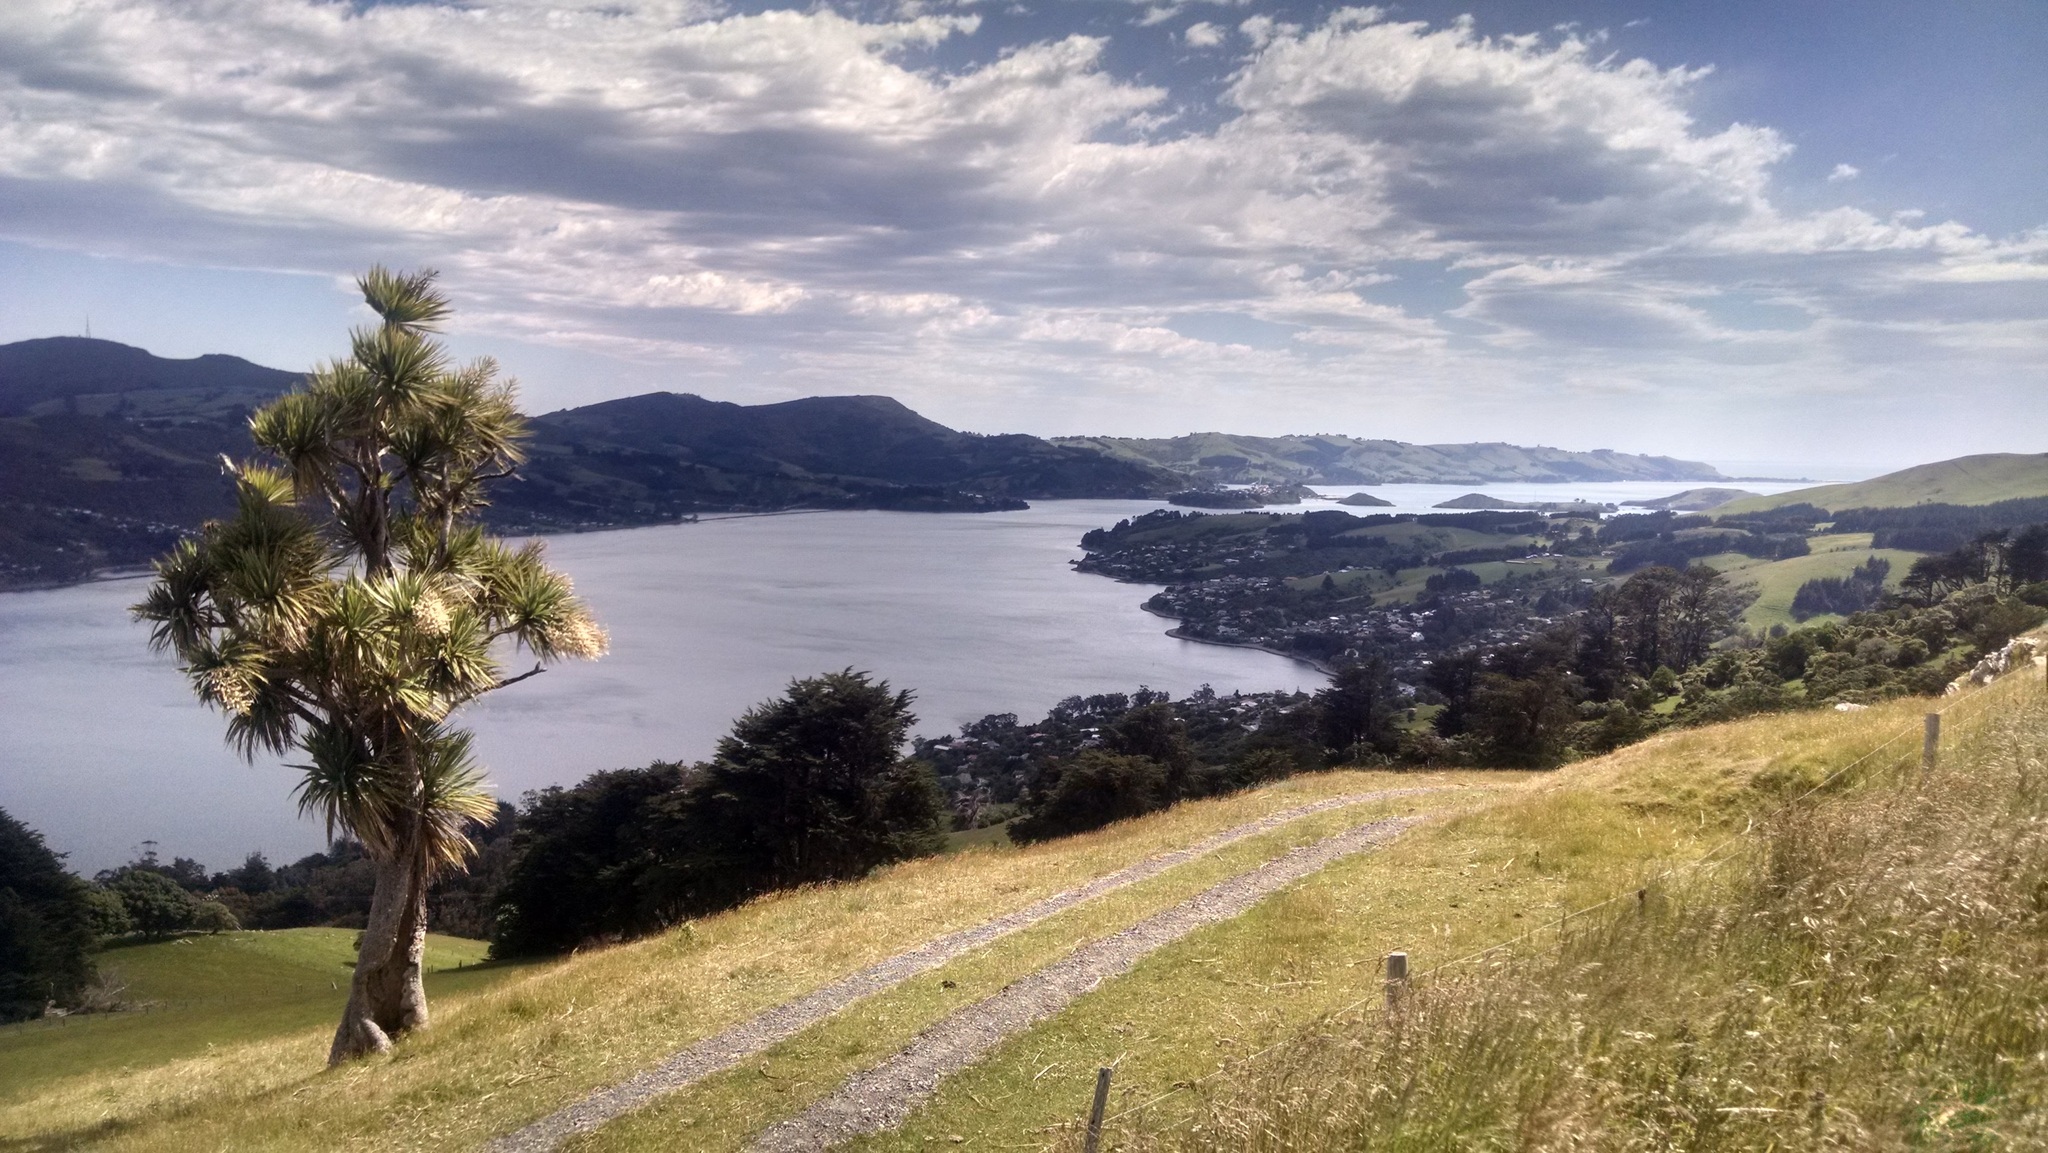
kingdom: Plantae
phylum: Tracheophyta
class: Liliopsida
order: Asparagales
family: Asparagaceae
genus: Cordyline
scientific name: Cordyline australis
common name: Cabbage-palm
